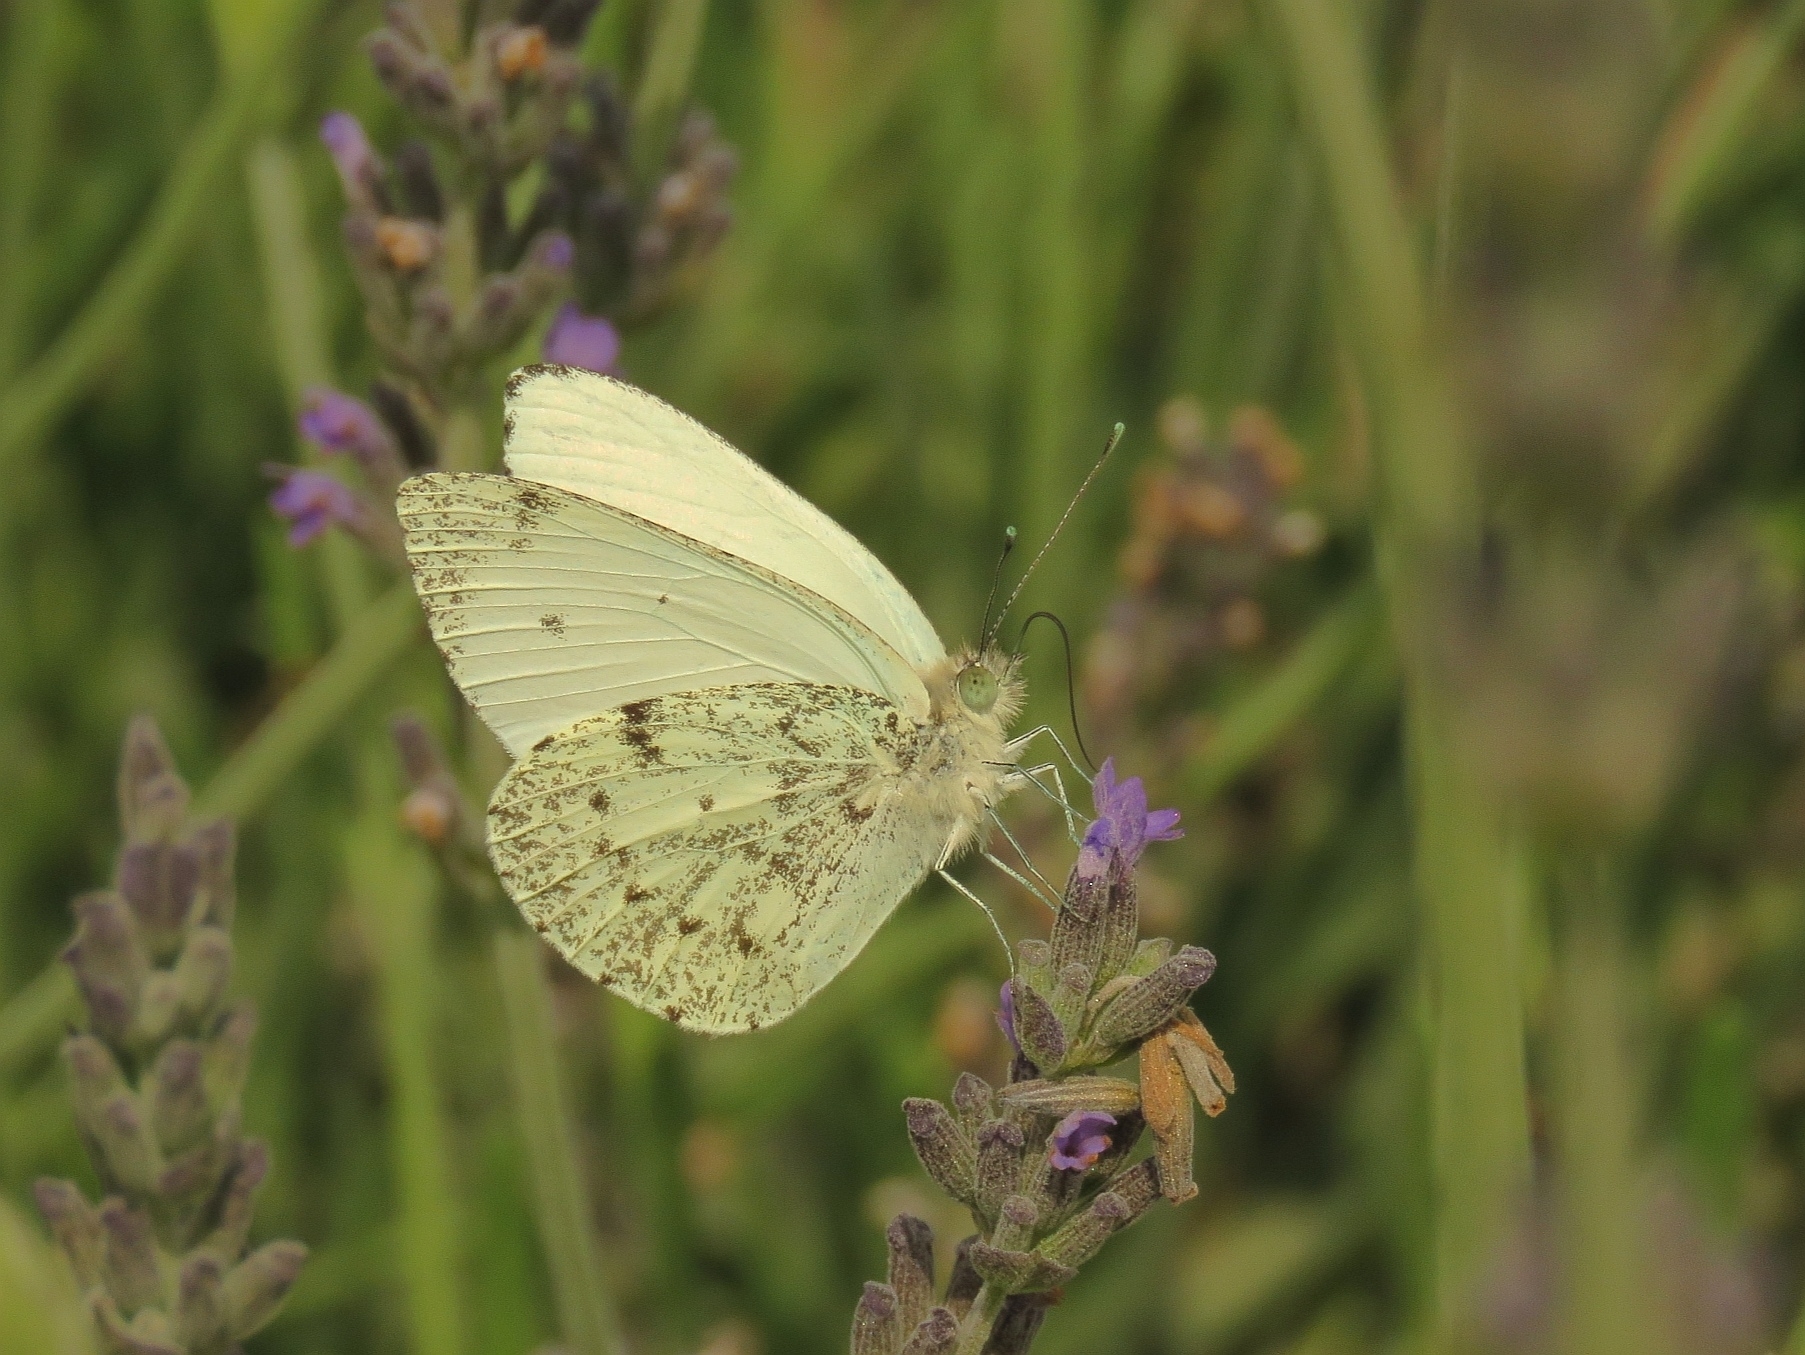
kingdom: Animalia
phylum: Arthropoda
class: Insecta
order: Lepidoptera
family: Pieridae
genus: Dixeia
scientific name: Dixeia charina
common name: African small white
